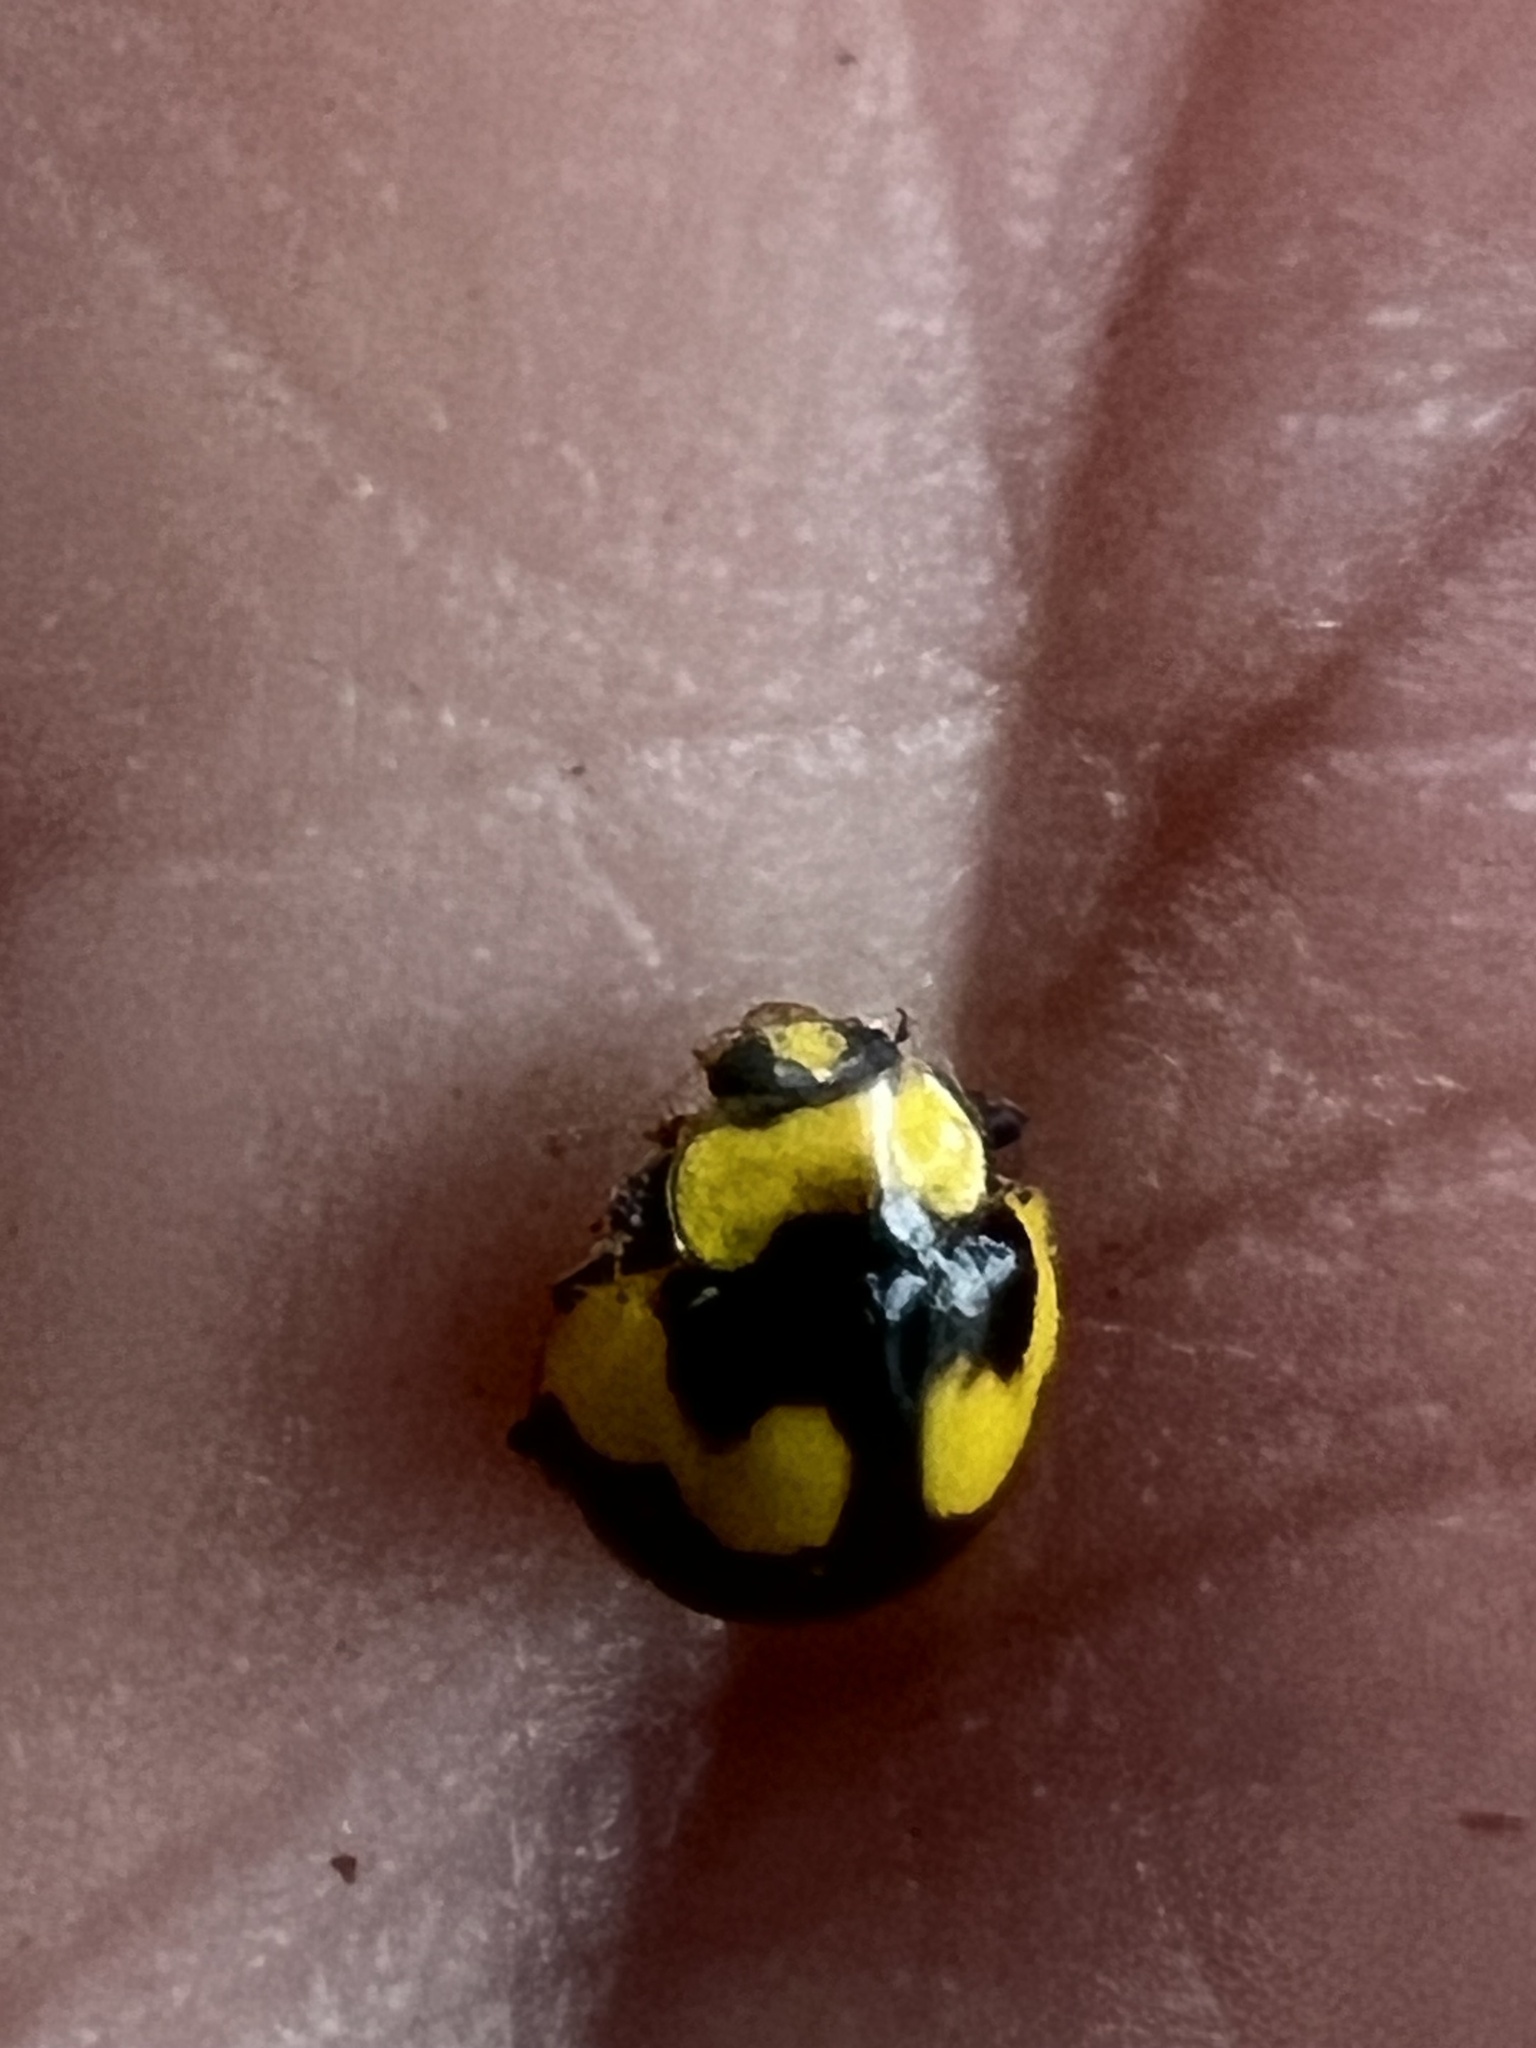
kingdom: Animalia
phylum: Arthropoda
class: Insecta
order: Coleoptera
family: Coccinellidae
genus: Illeis
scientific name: Illeis galbula
